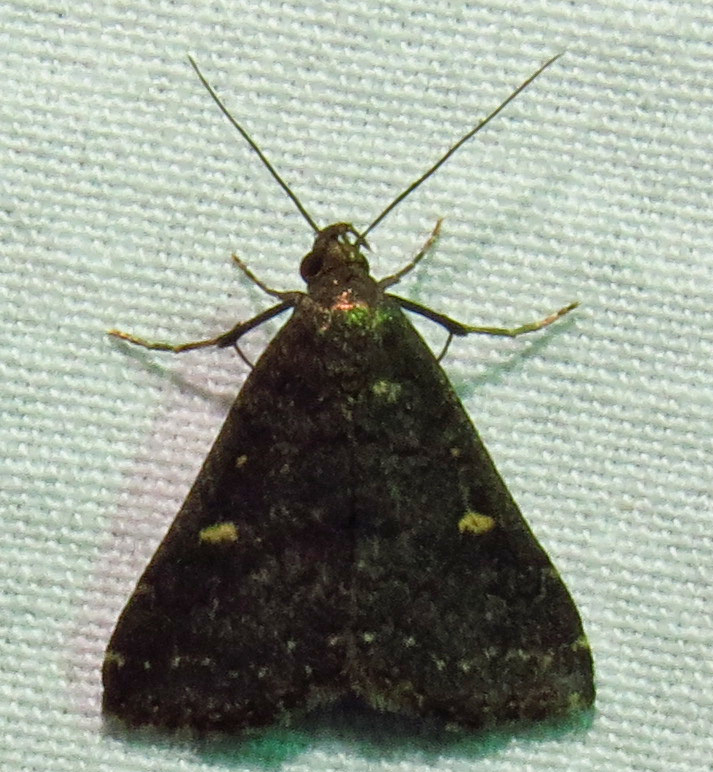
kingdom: Animalia
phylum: Arthropoda
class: Insecta
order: Lepidoptera
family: Erebidae
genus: Tetanolita
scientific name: Tetanolita mynesalis
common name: Smoky tetanolita moth
